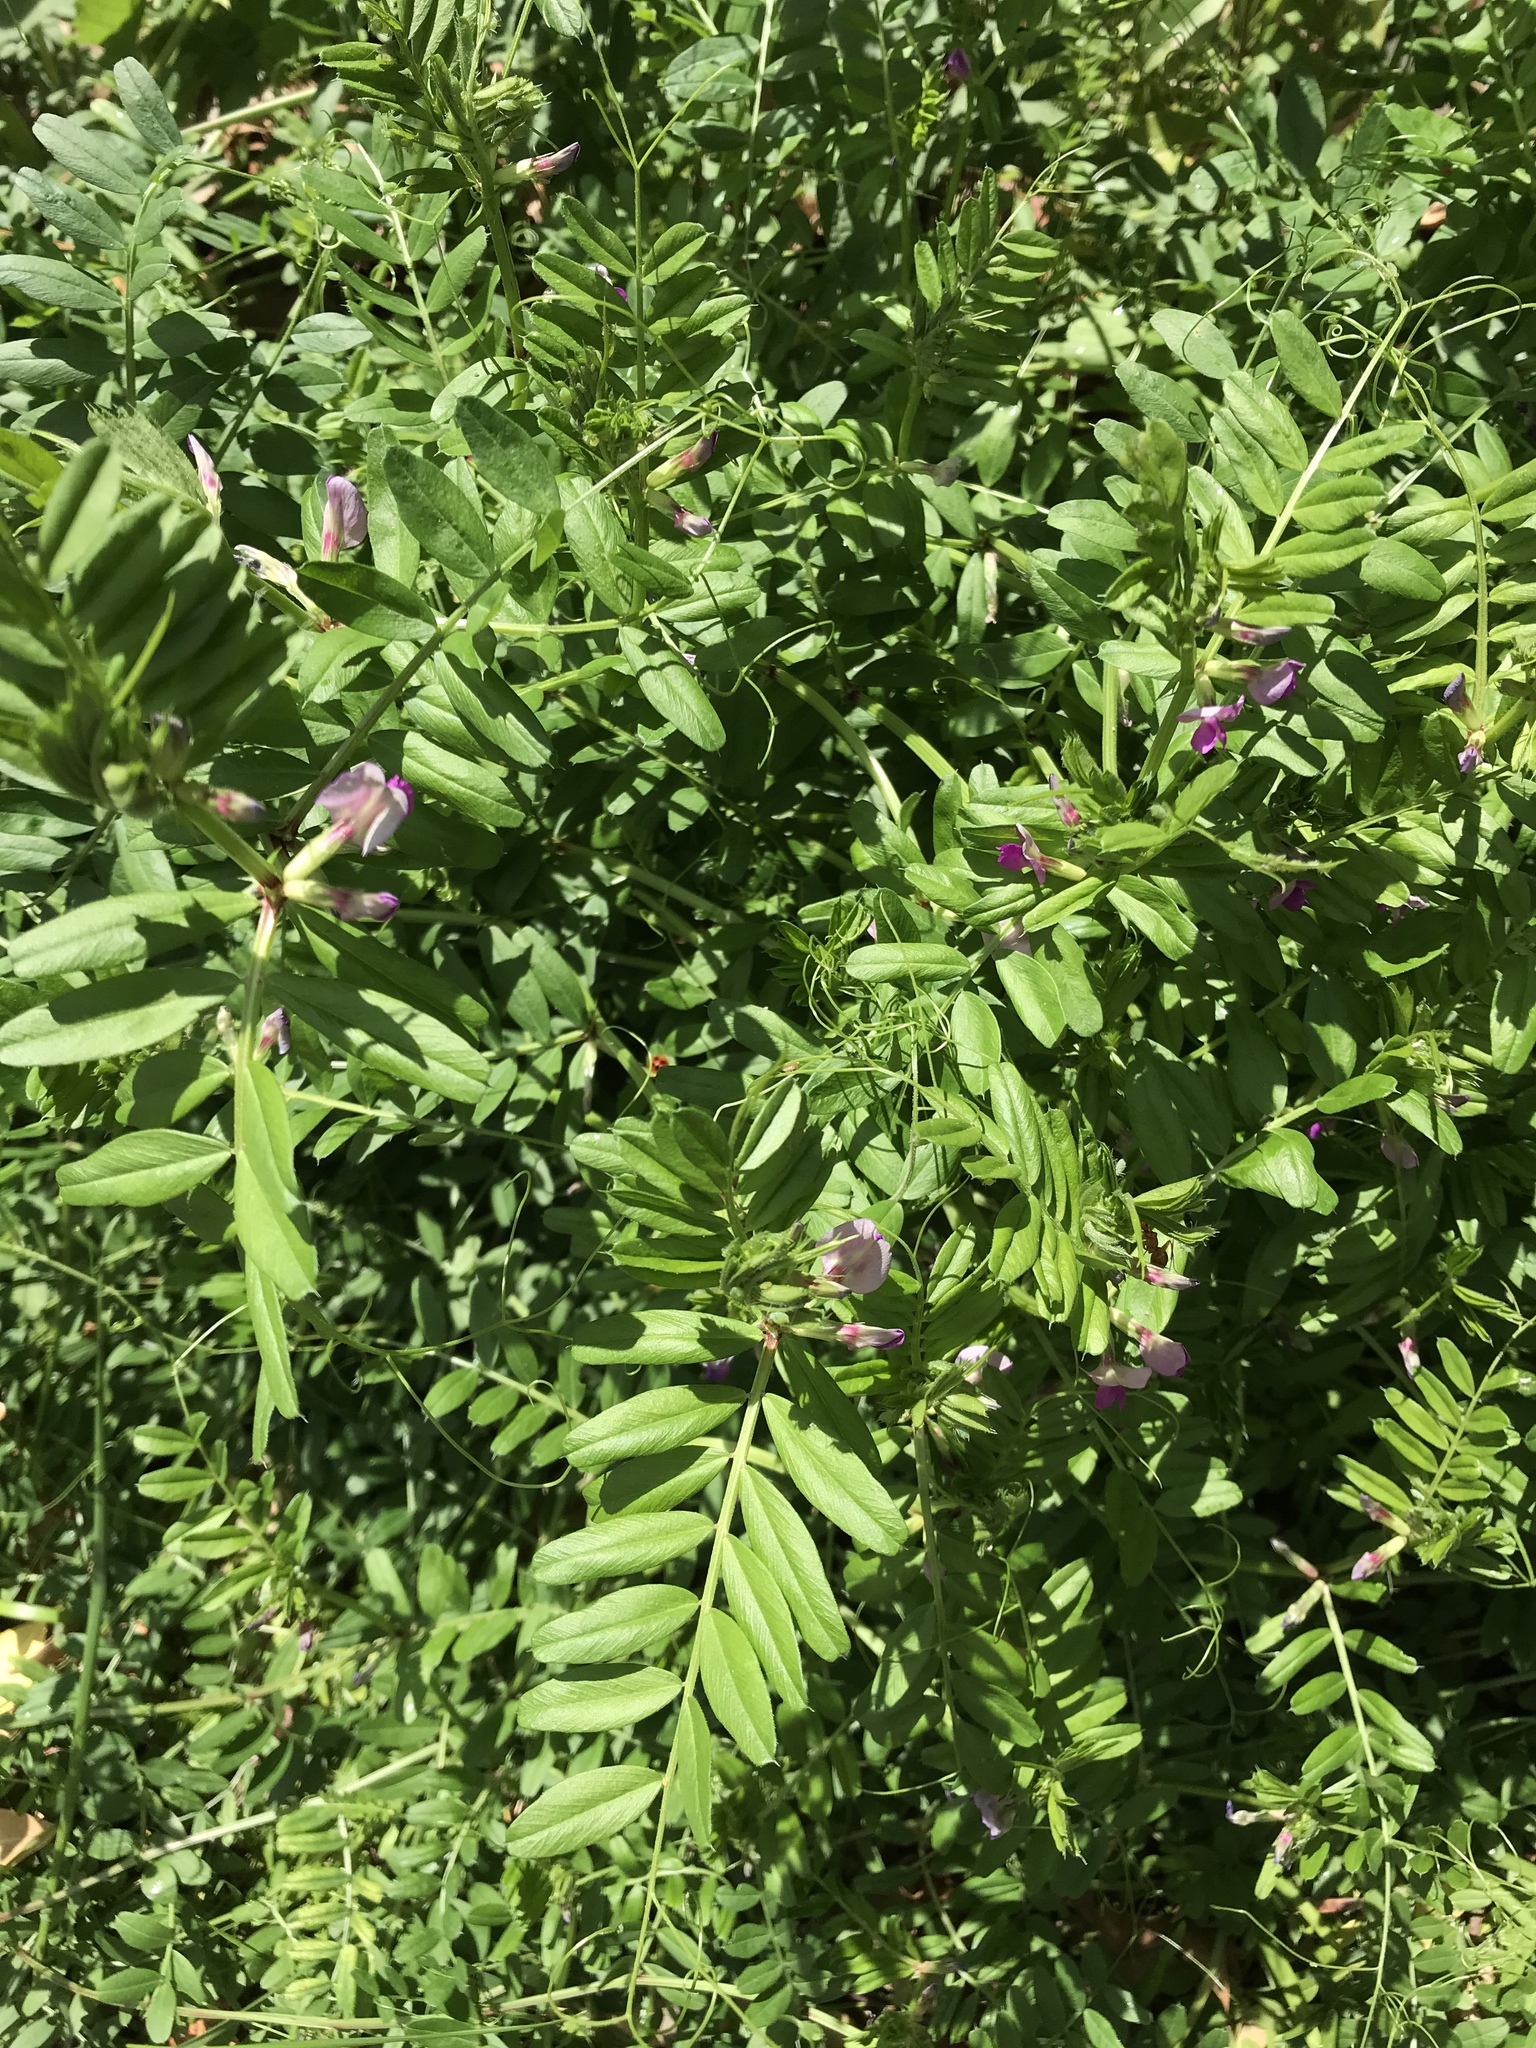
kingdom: Plantae
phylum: Tracheophyta
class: Magnoliopsida
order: Fabales
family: Fabaceae
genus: Vicia
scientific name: Vicia sativa
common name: Garden vetch
